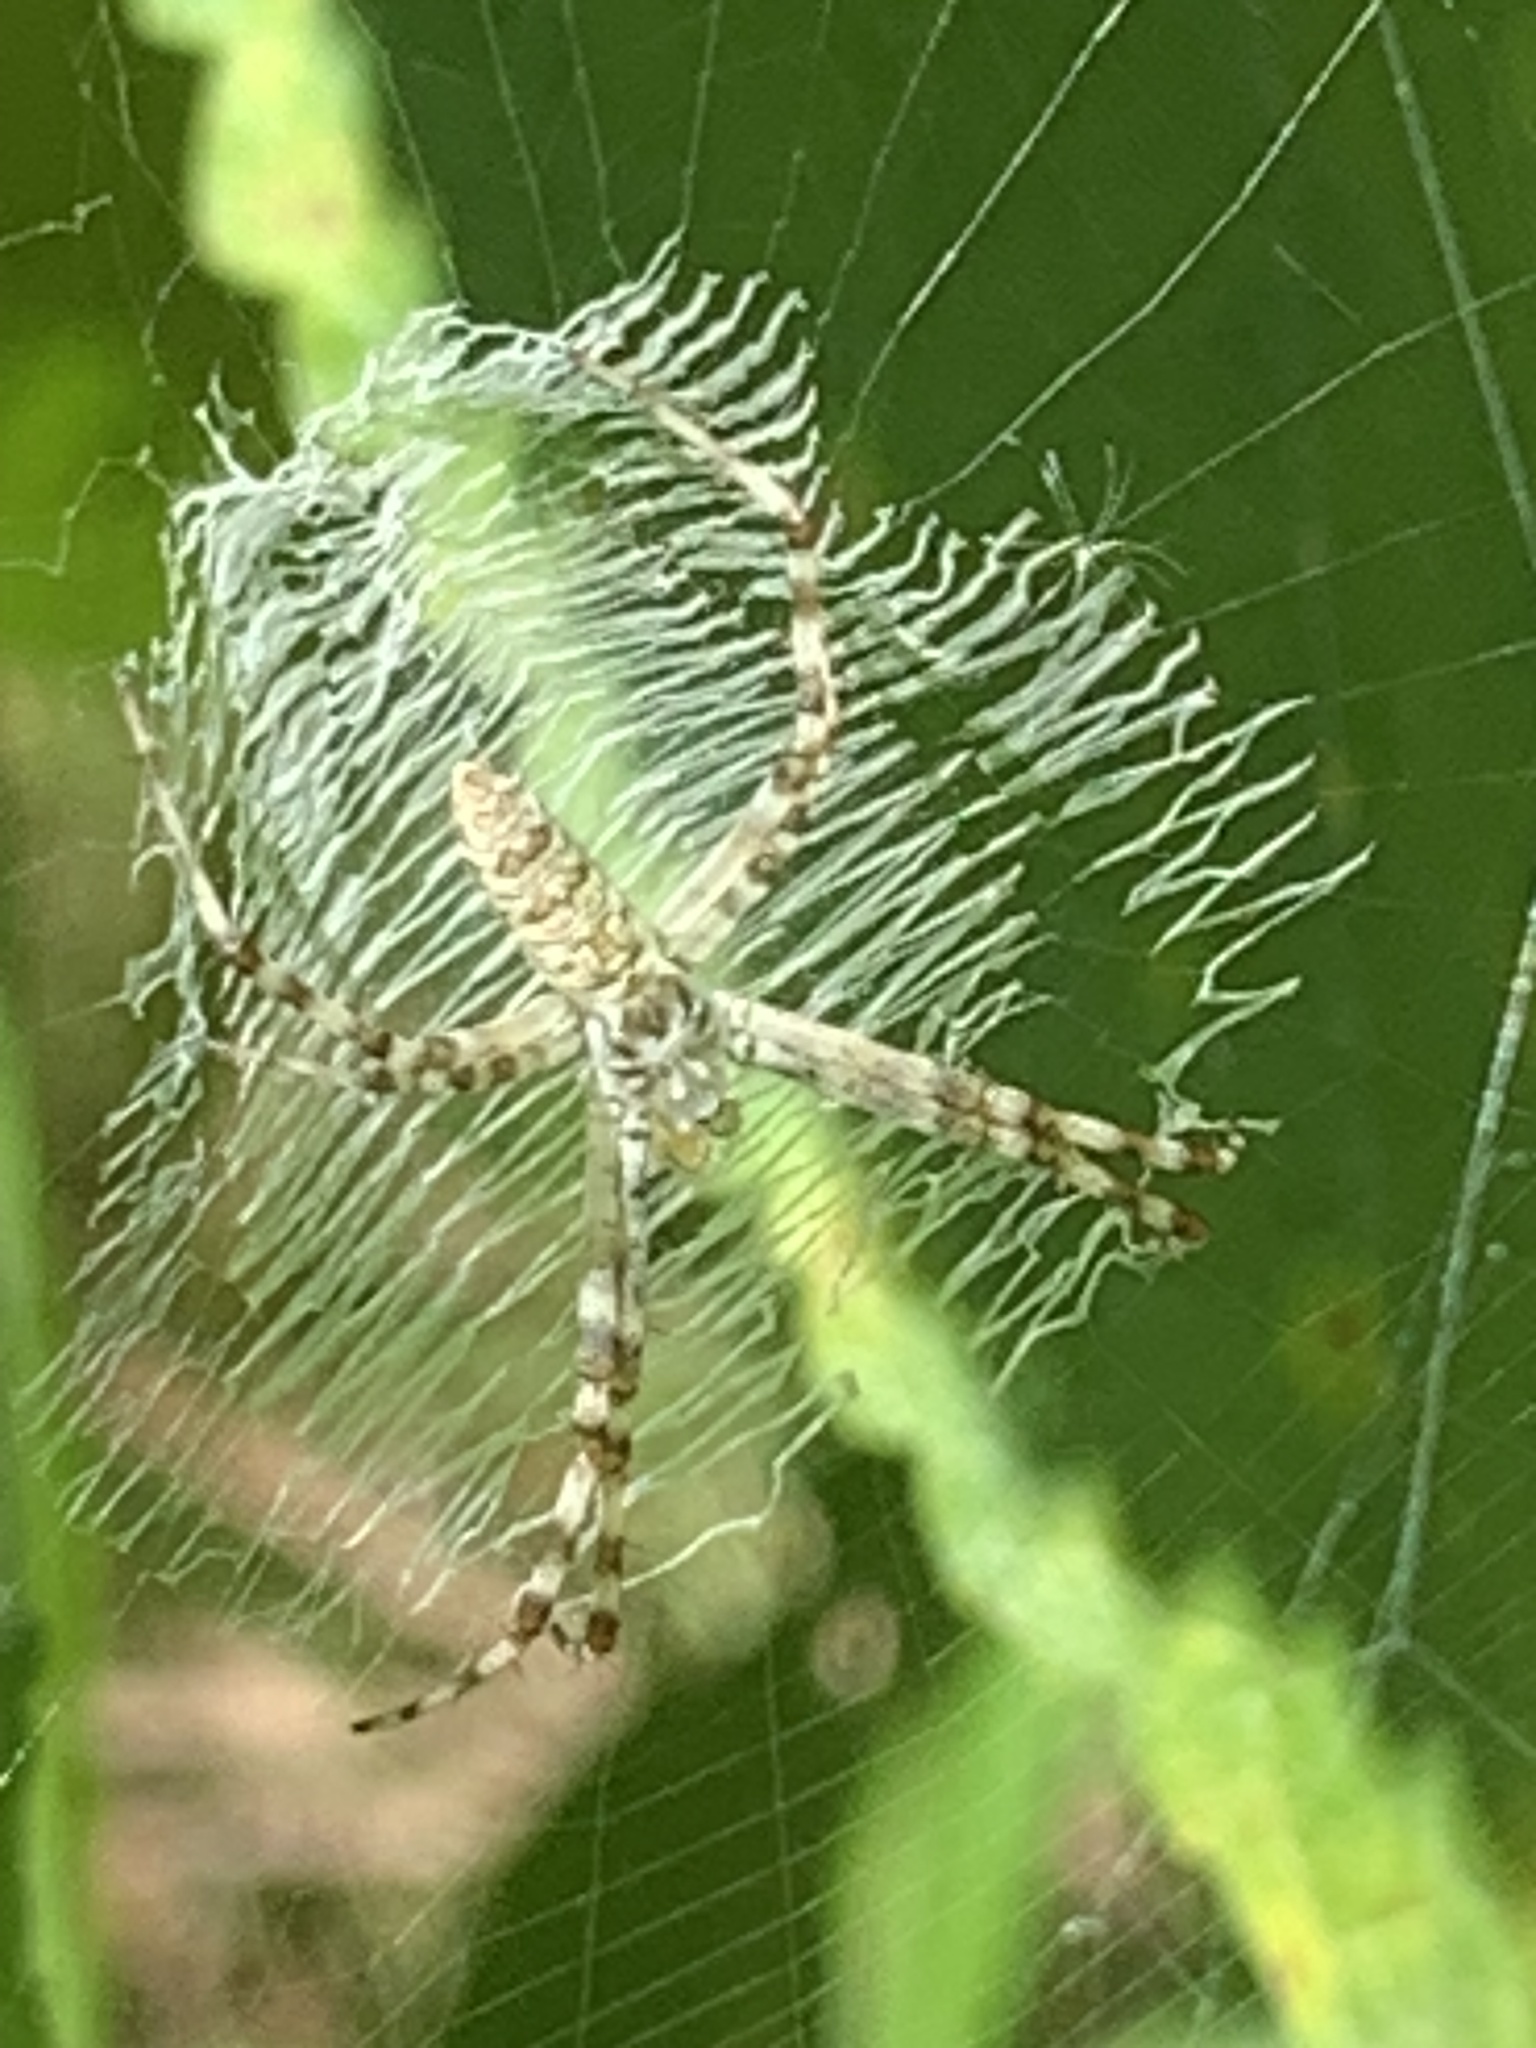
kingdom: Animalia
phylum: Arthropoda
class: Arachnida
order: Araneae
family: Araneidae
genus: Argiope
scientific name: Argiope aurantia
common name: Orb weavers
